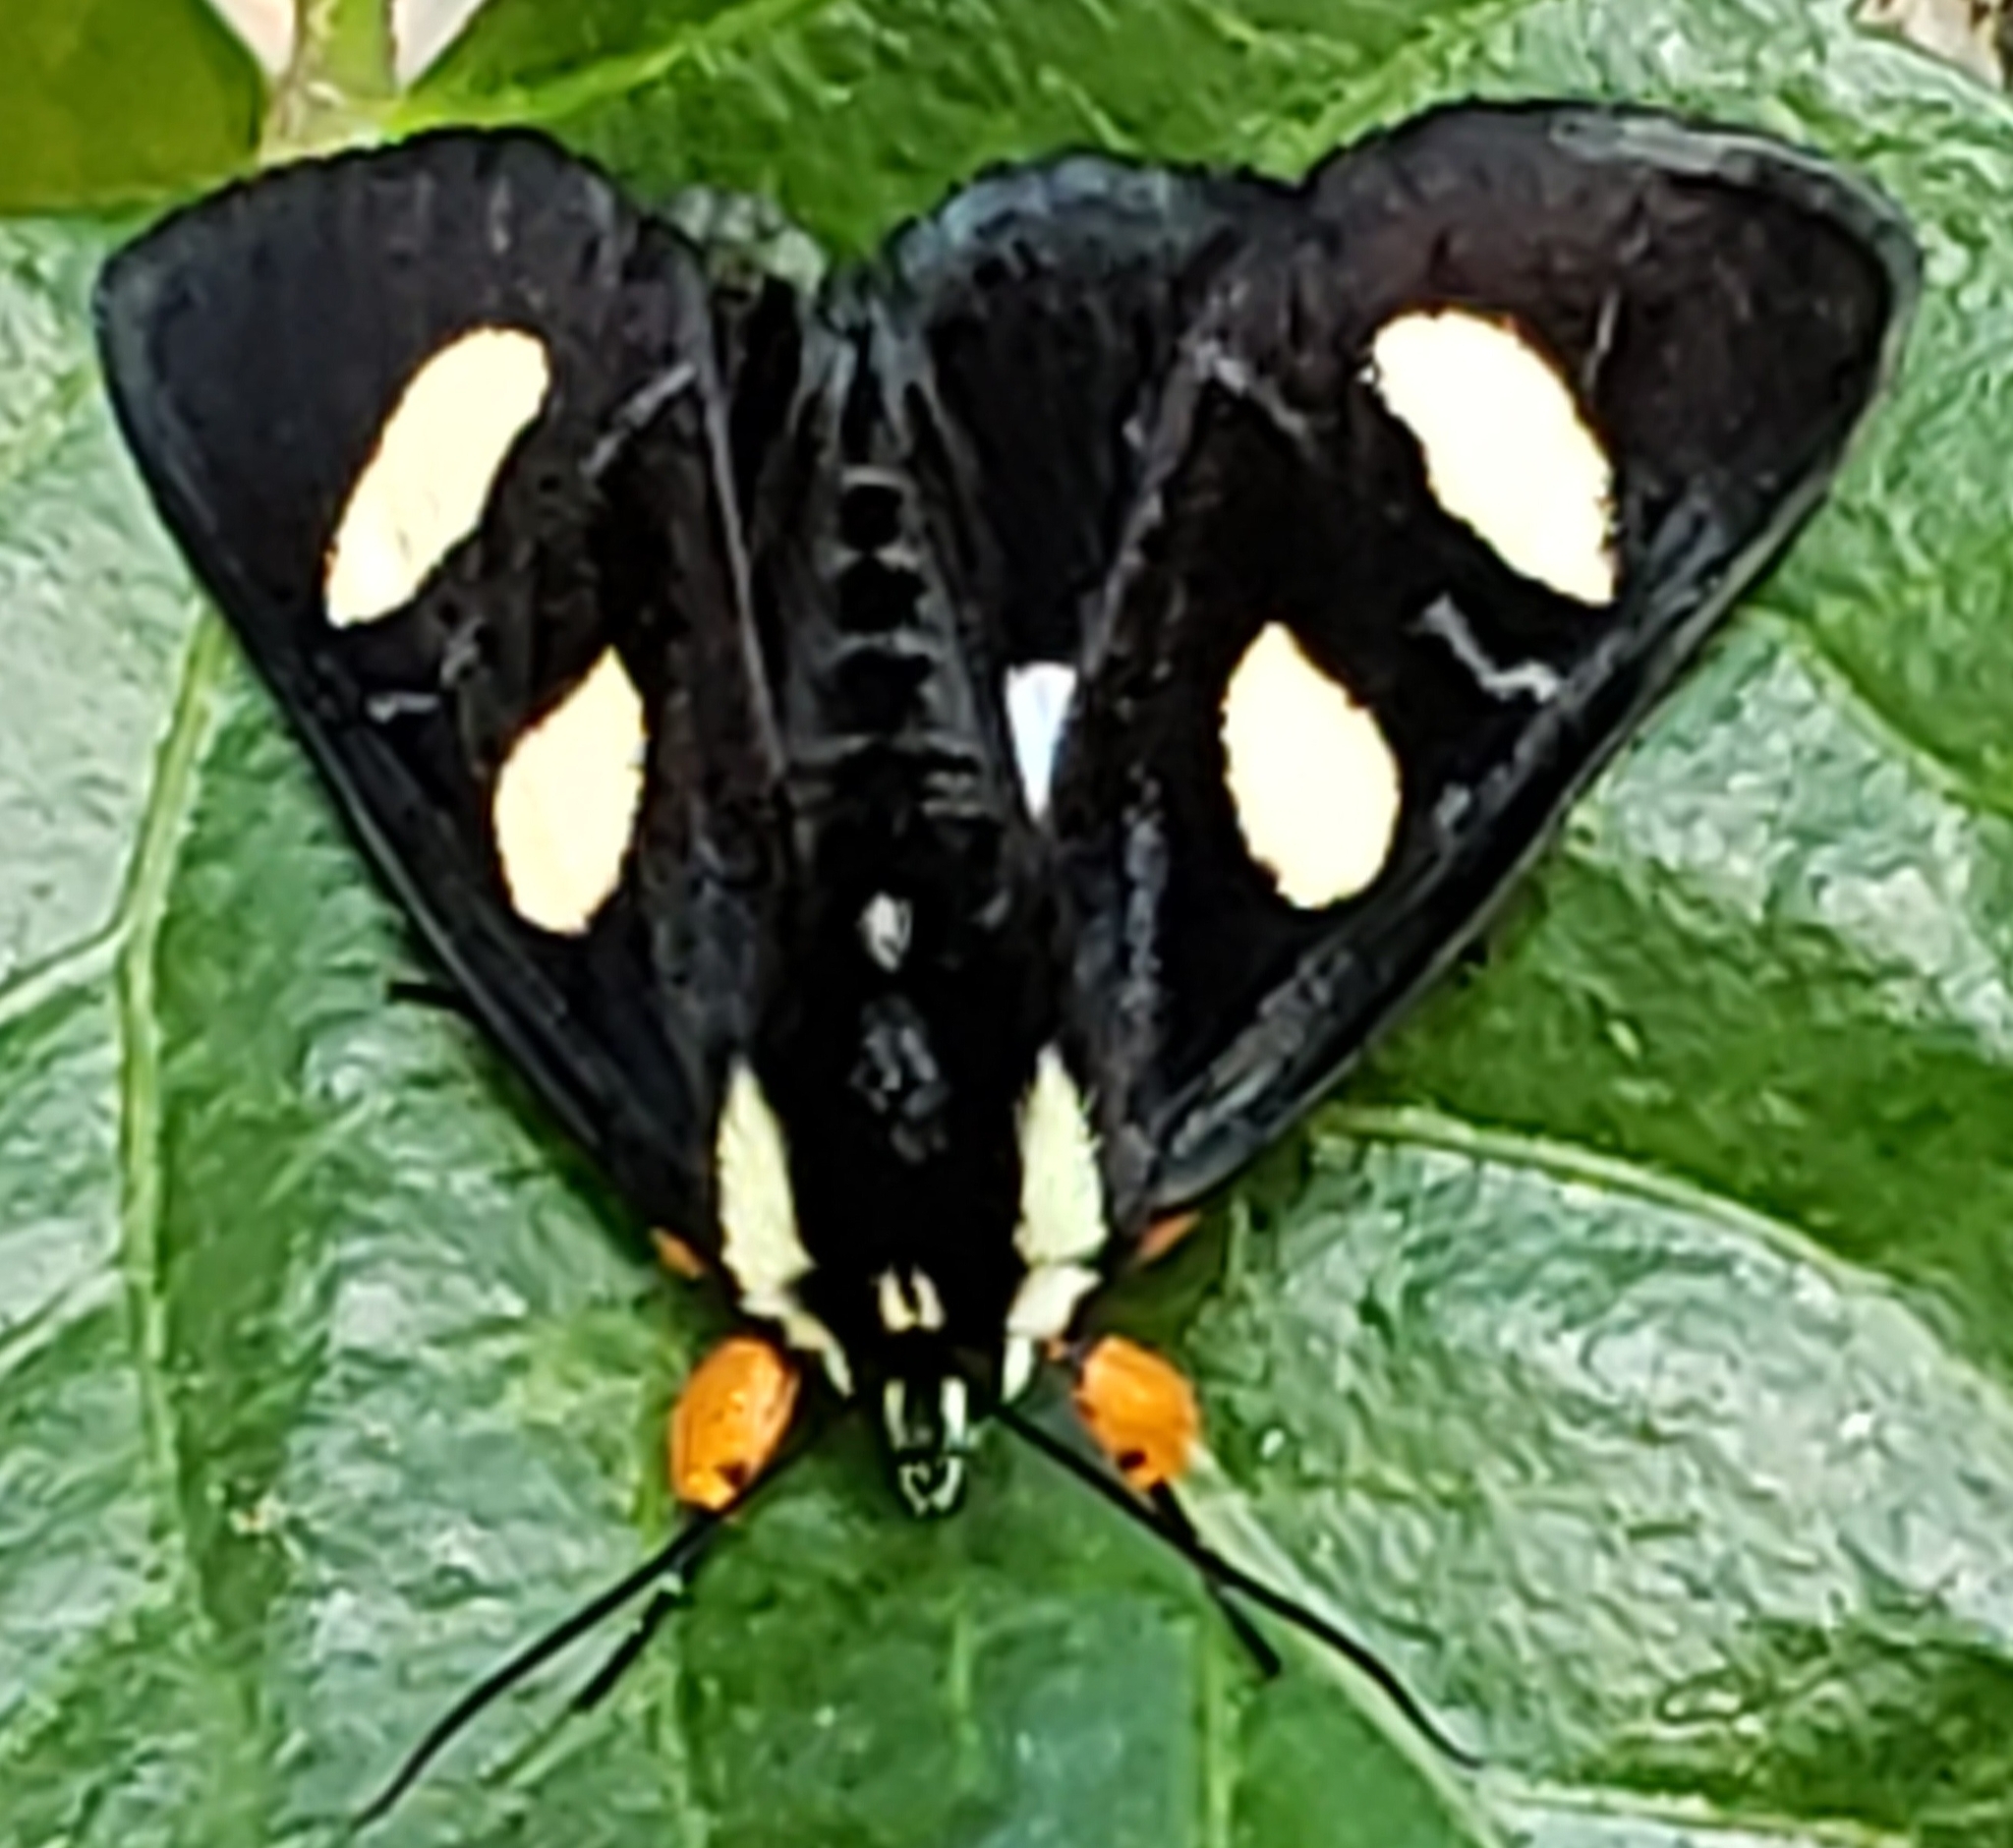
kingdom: Animalia
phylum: Arthropoda
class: Insecta
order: Lepidoptera
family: Noctuidae
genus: Alypia
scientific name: Alypia octomaculata
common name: Eight-spotted forester
